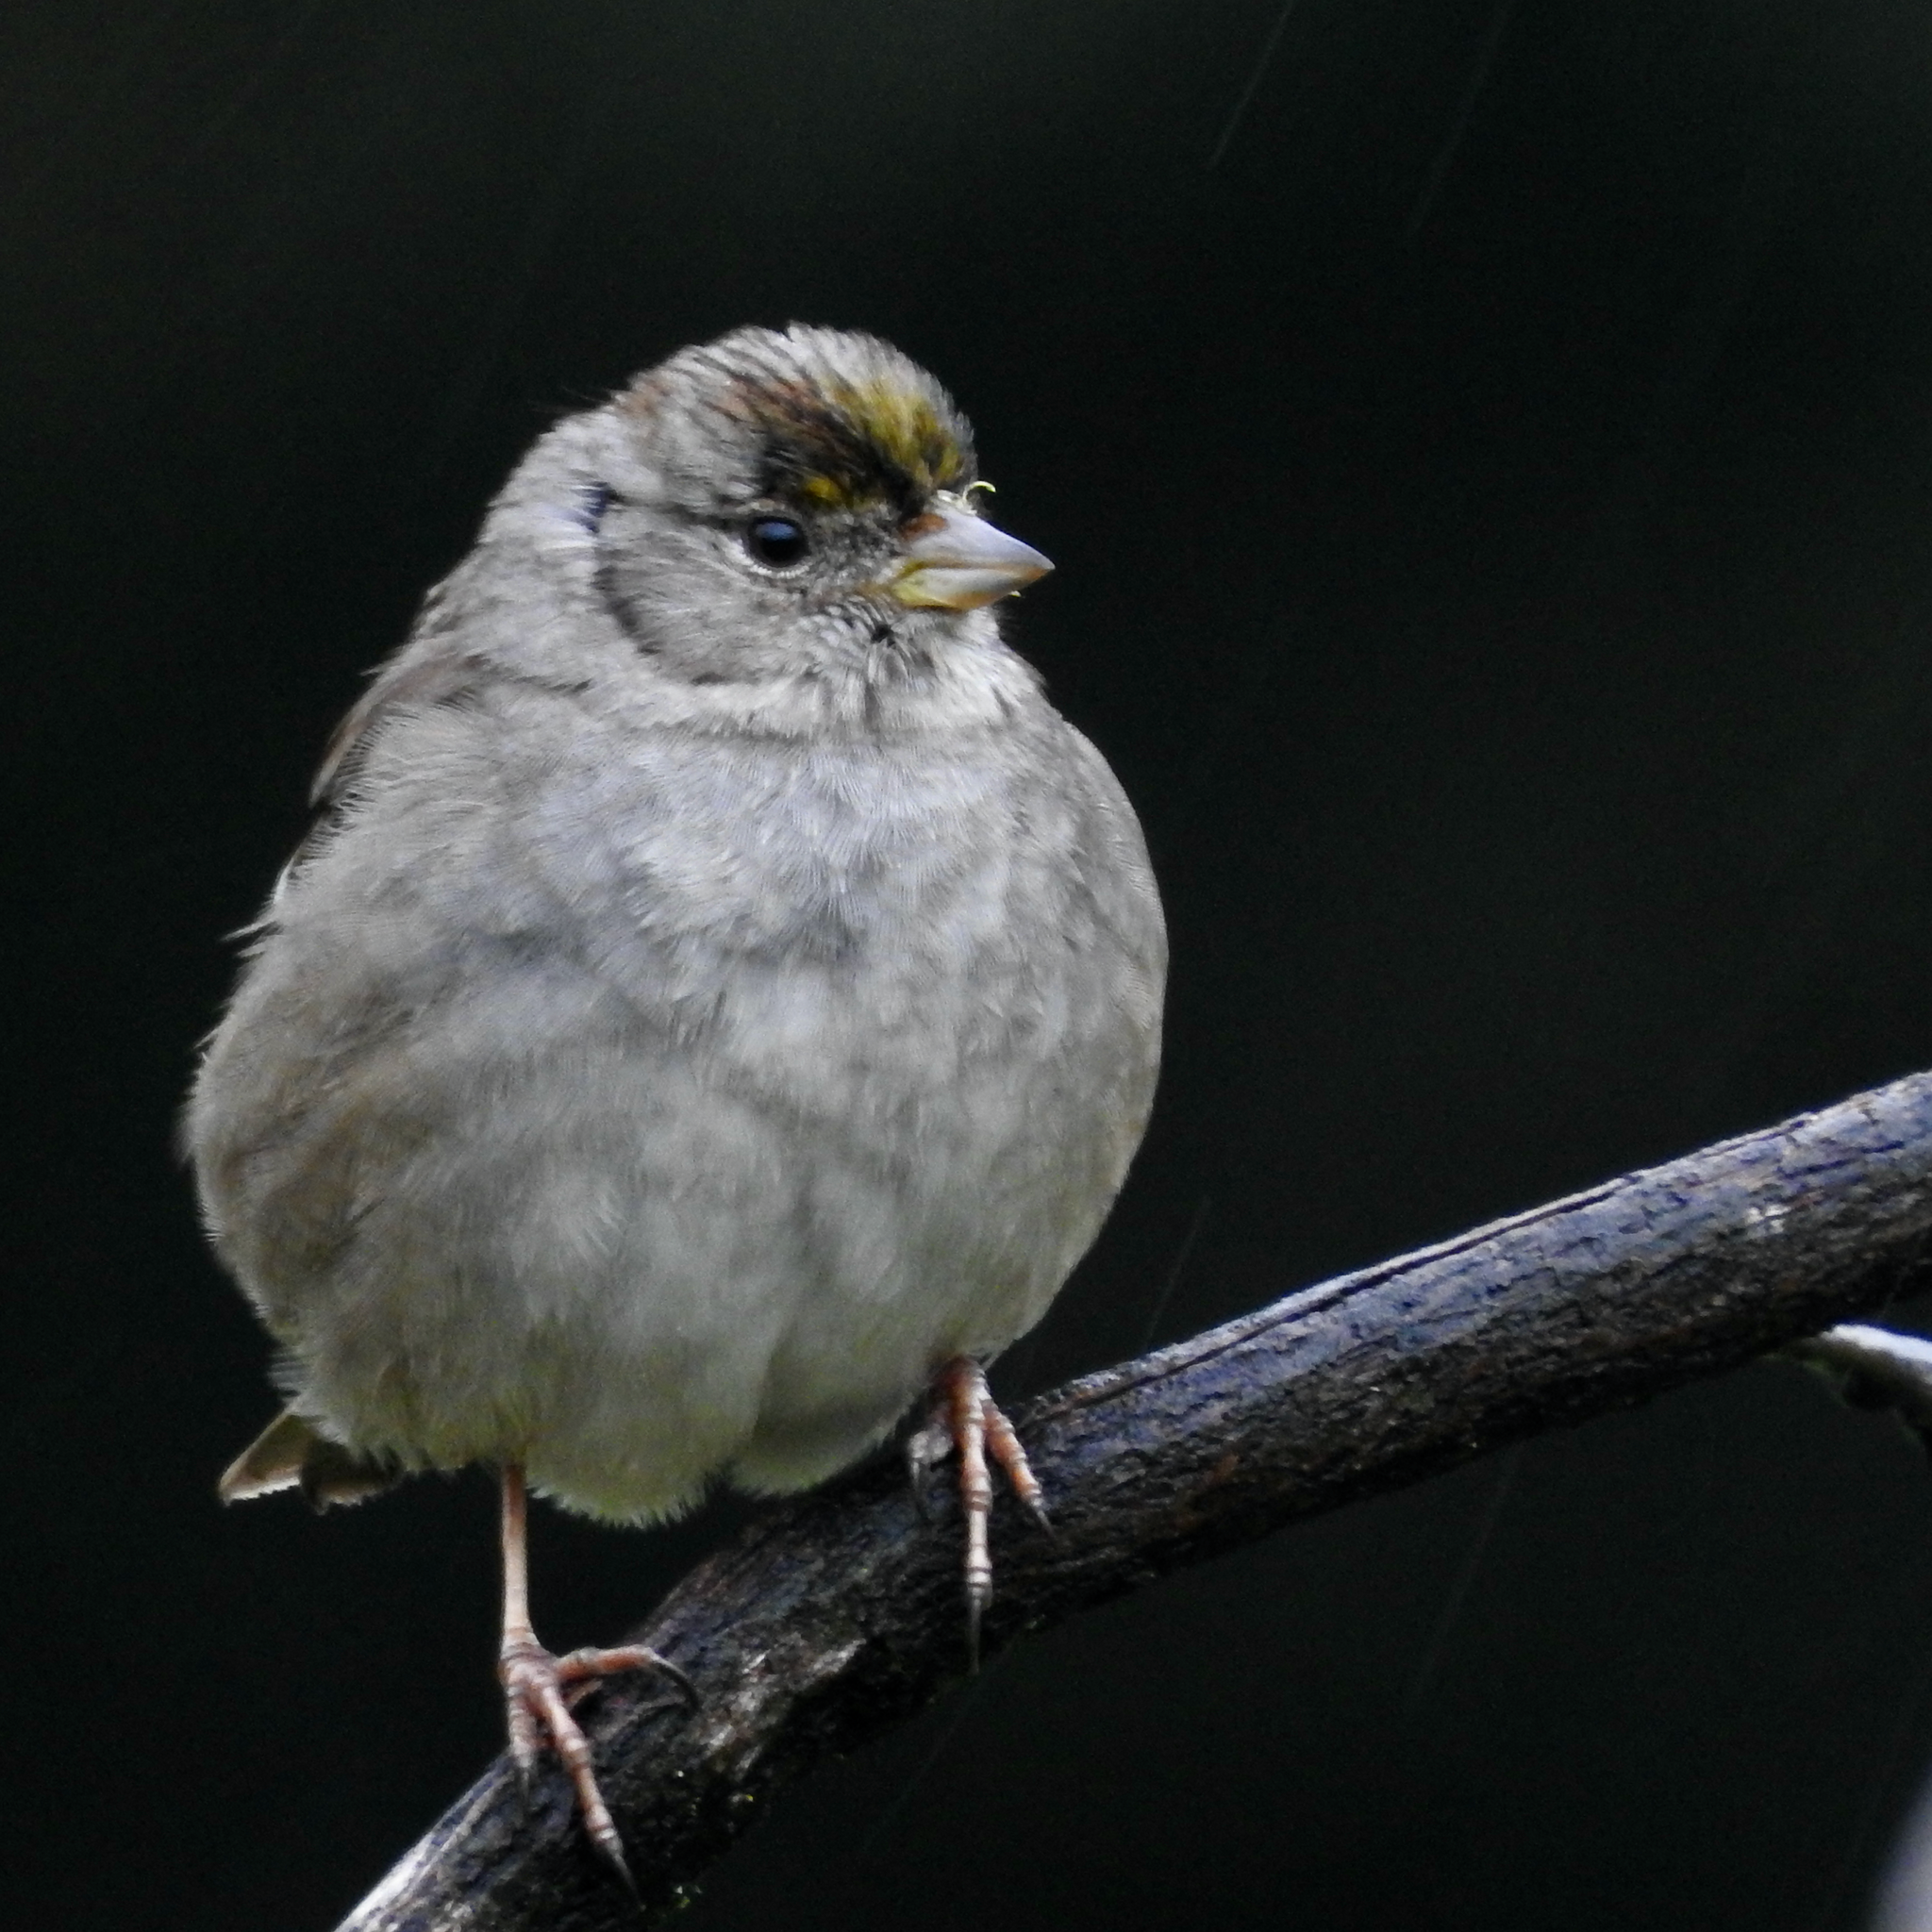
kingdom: Animalia
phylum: Chordata
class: Aves
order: Passeriformes
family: Passerellidae
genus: Zonotrichia
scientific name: Zonotrichia atricapilla
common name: Golden-crowned sparrow
